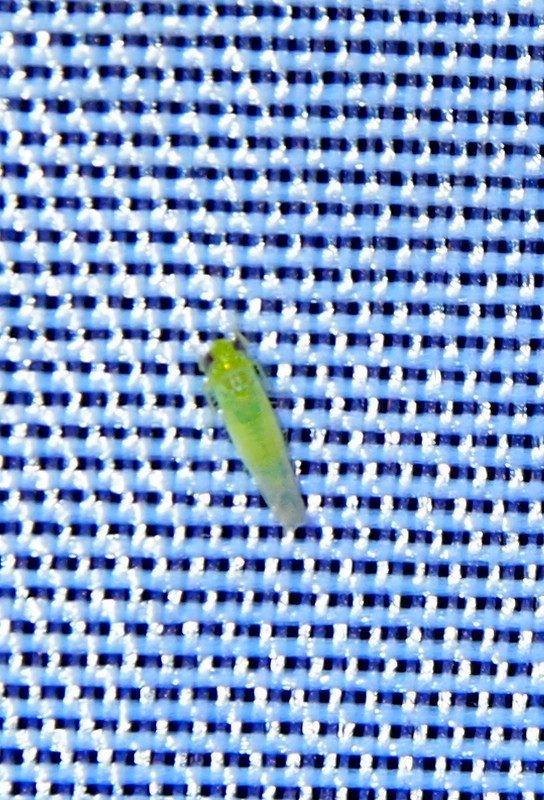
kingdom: Animalia
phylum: Arthropoda
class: Insecta
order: Hemiptera
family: Cicadellidae
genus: Empoasca
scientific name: Empoasca fabae
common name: Potato leafhopper
